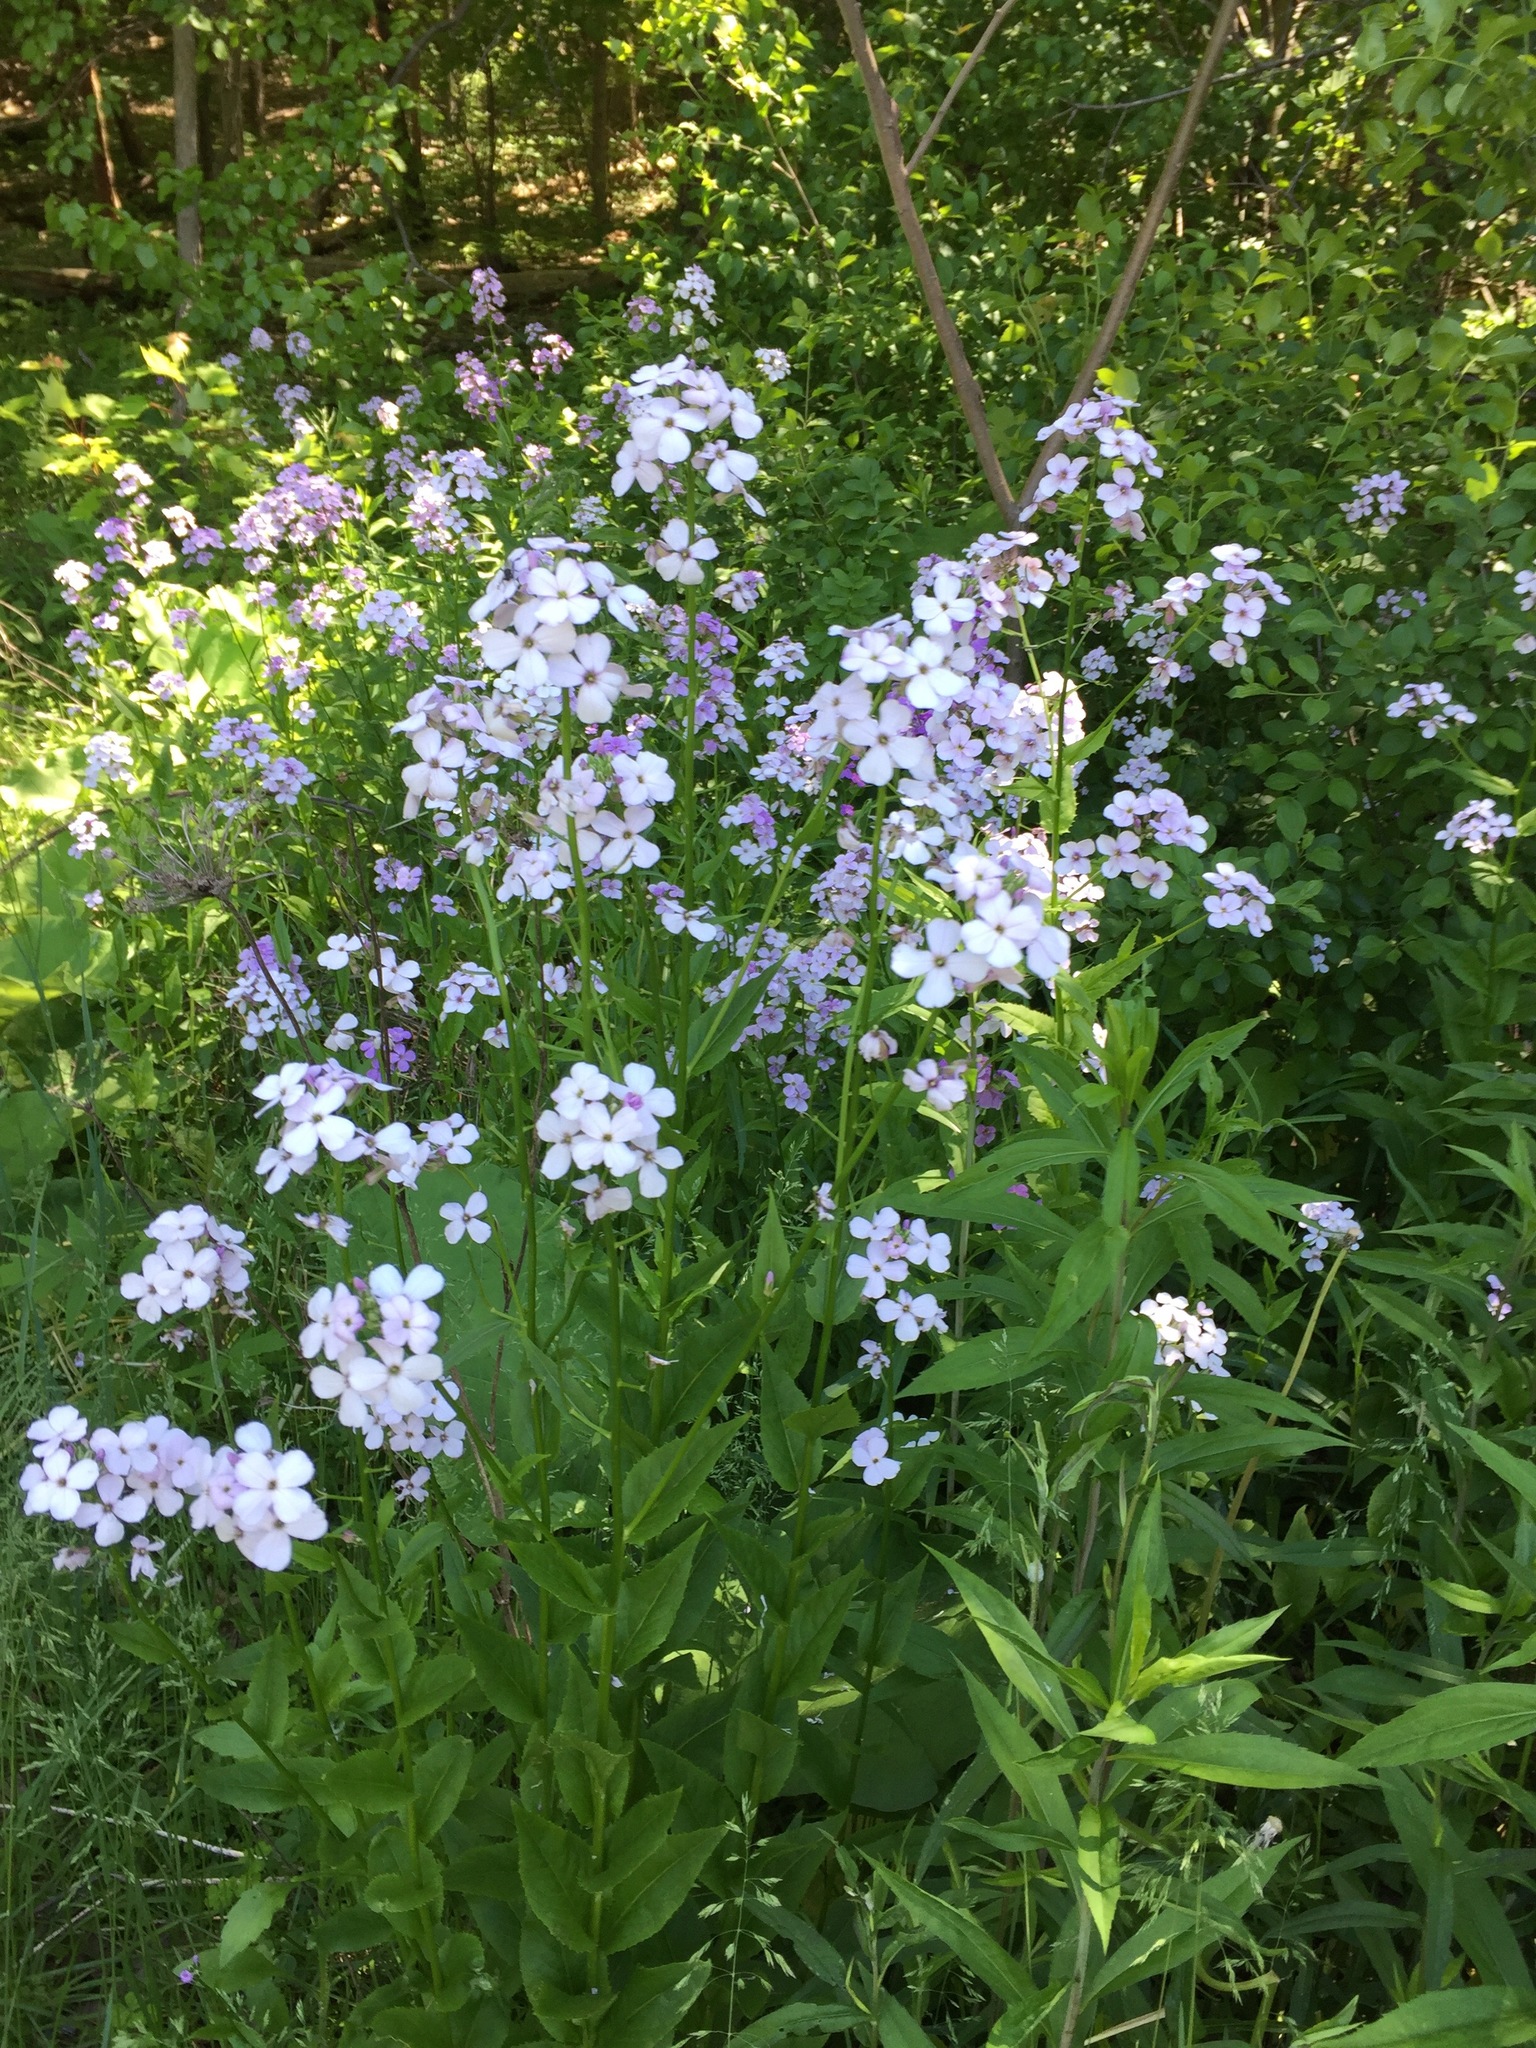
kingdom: Plantae
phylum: Tracheophyta
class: Magnoliopsida
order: Brassicales
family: Brassicaceae
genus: Hesperis
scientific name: Hesperis matronalis
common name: Dame's-violet
